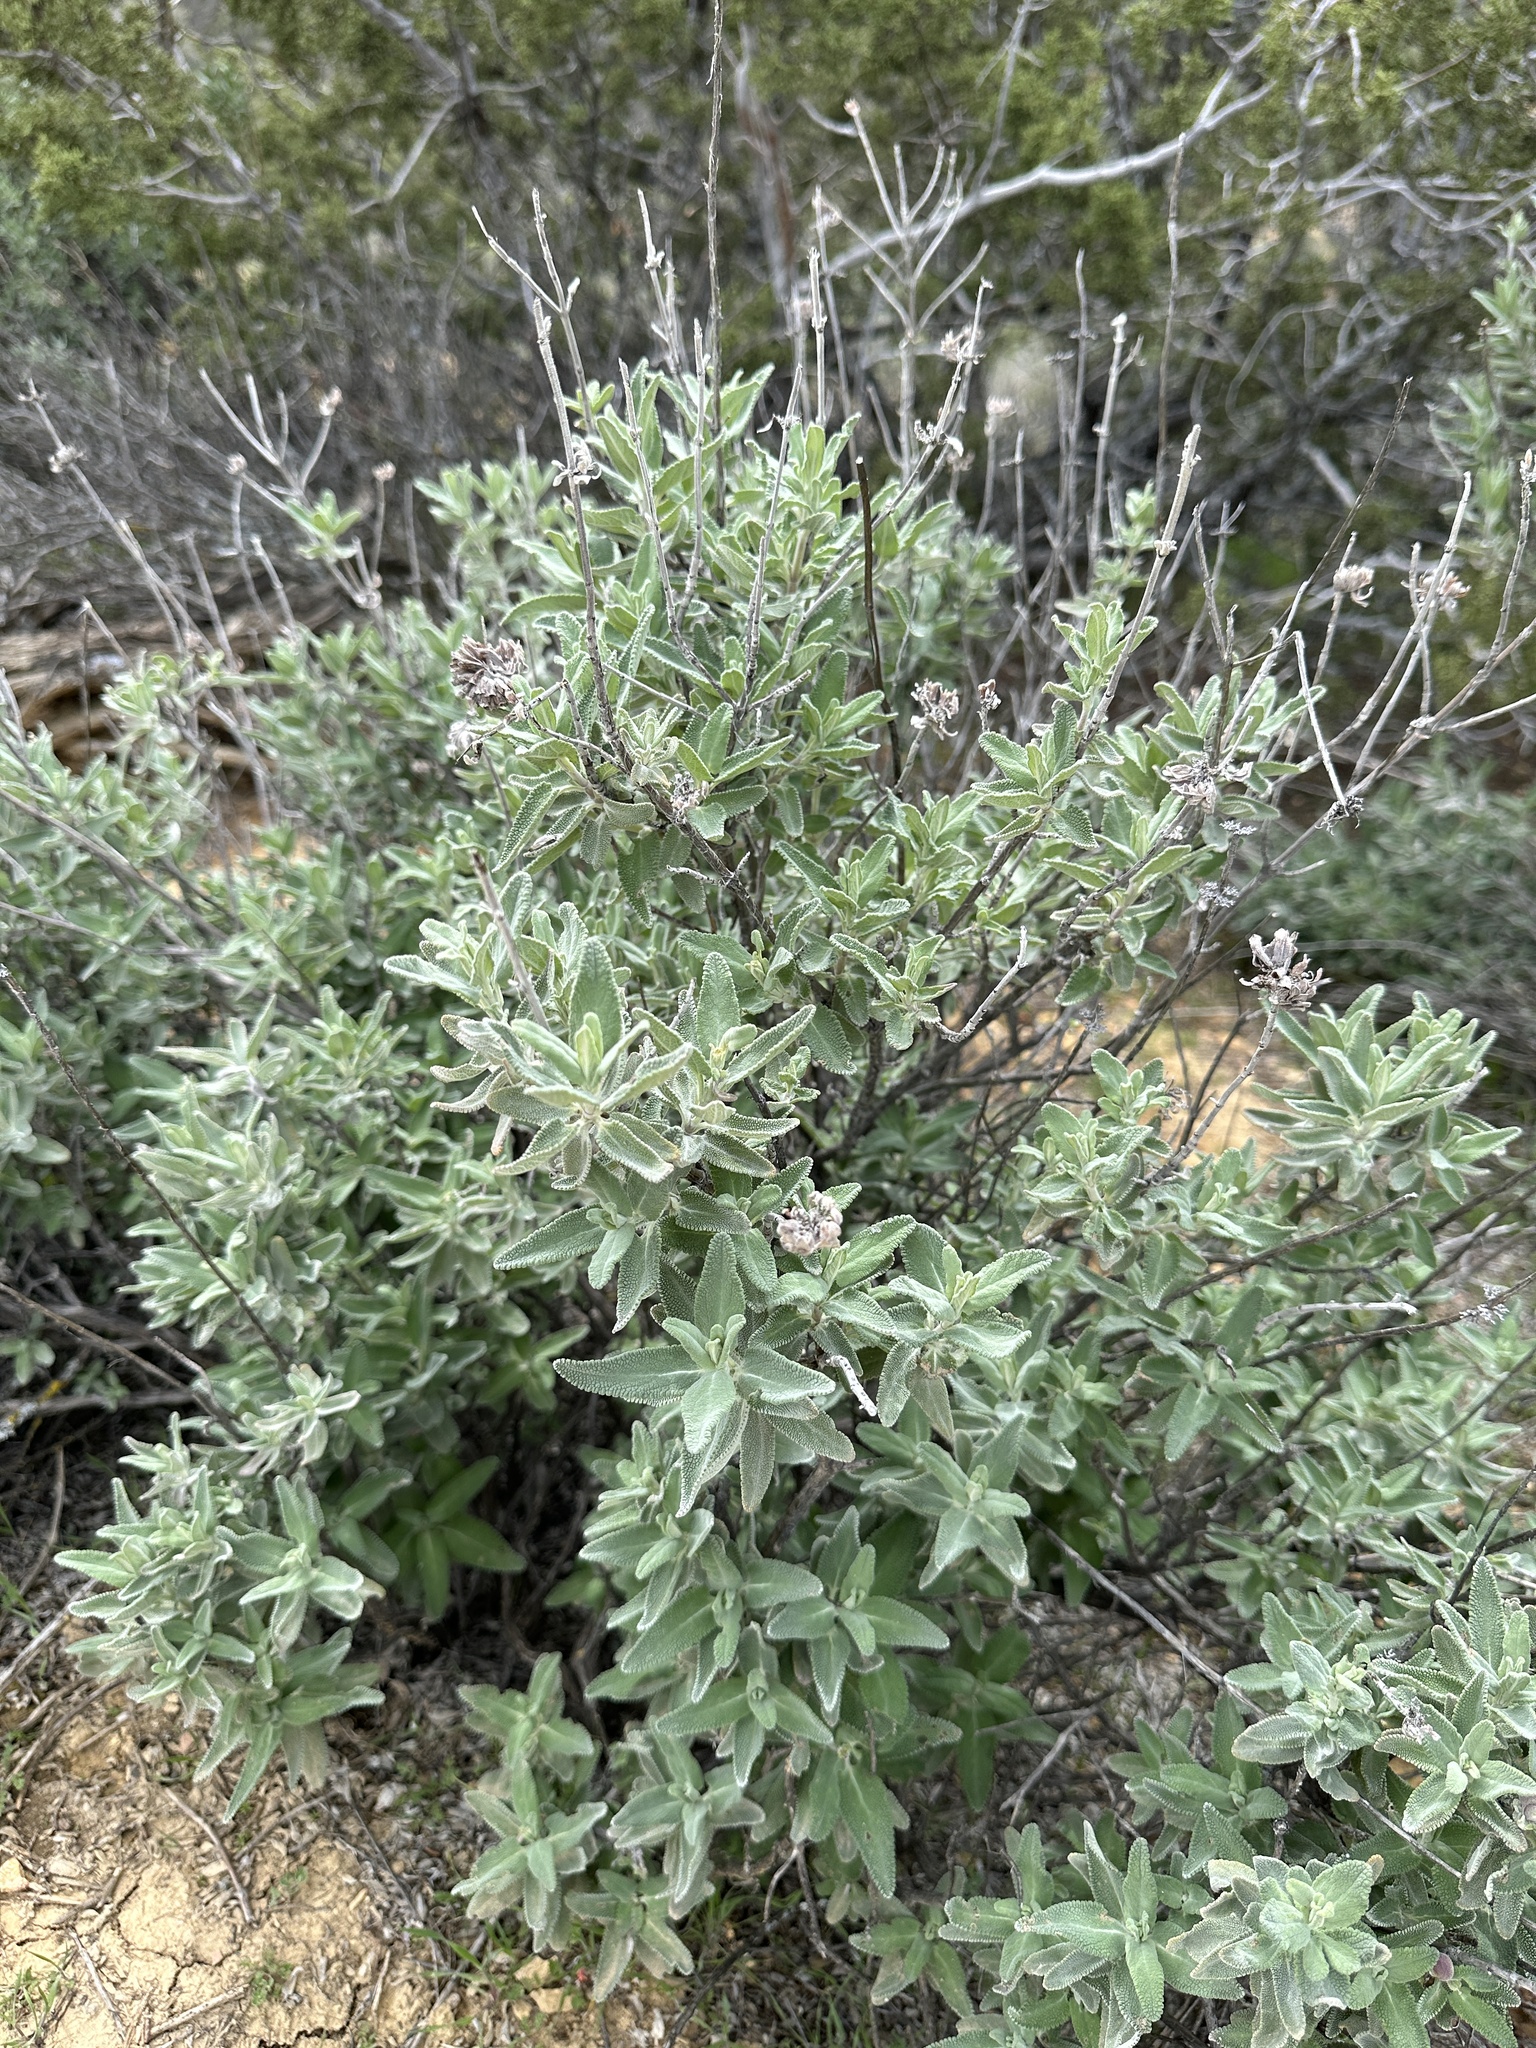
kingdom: Plantae
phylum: Tracheophyta
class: Magnoliopsida
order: Lamiales
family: Lamiaceae
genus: Salvia
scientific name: Salvia leucophylla
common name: Purple sage
